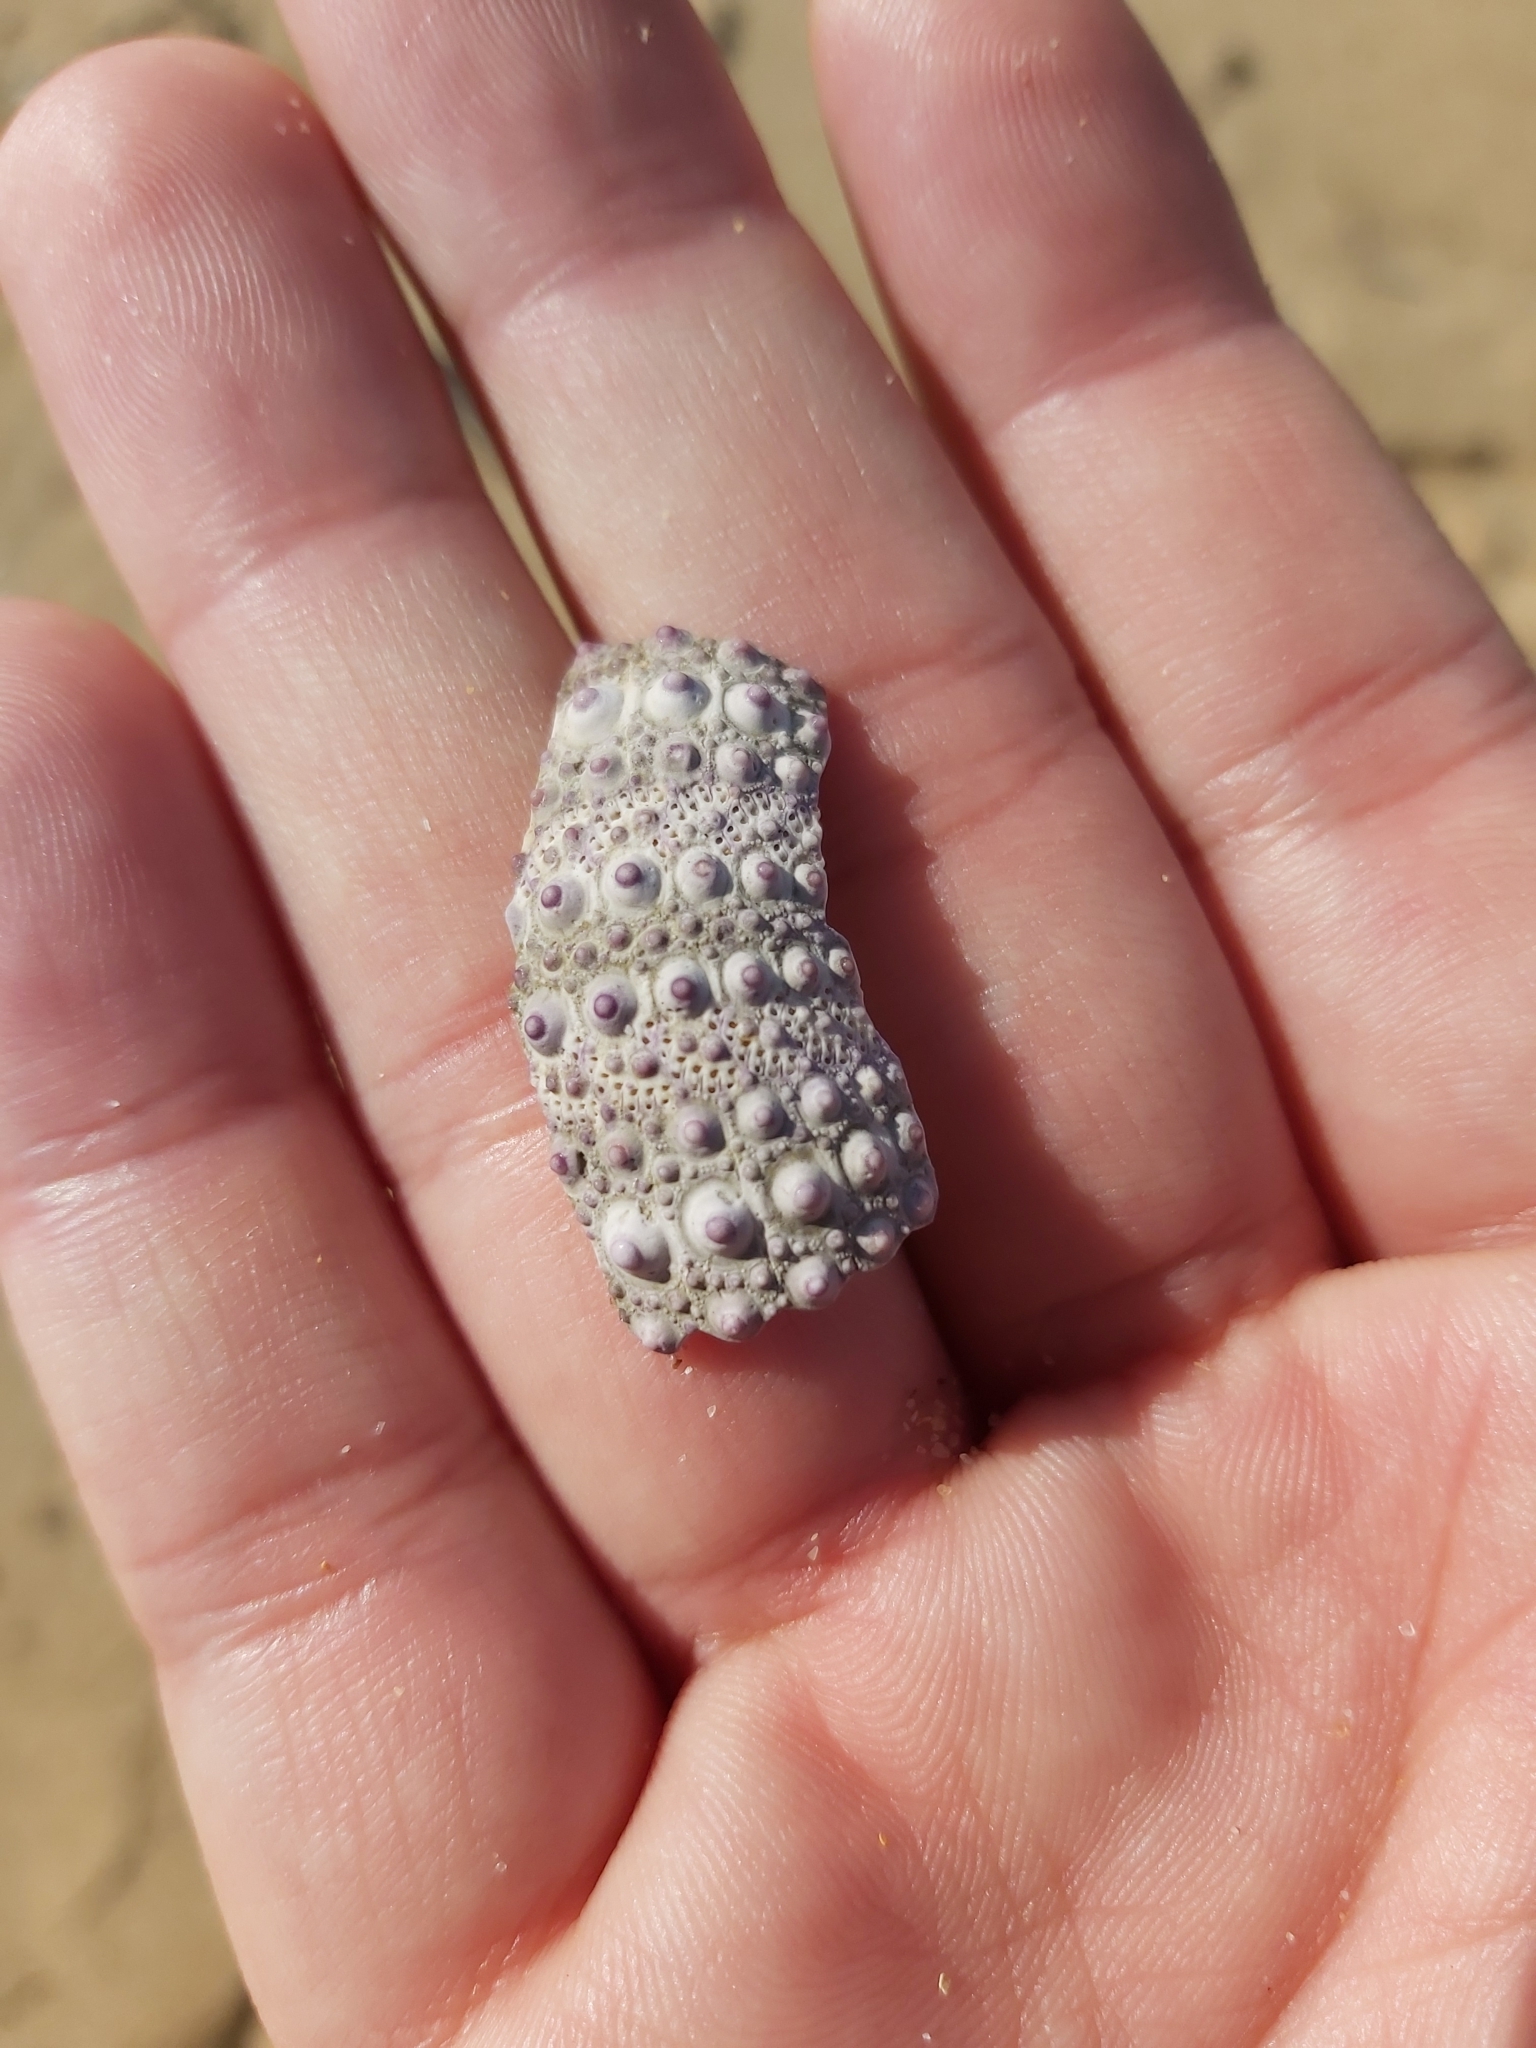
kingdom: Animalia
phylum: Echinodermata
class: Echinoidea
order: Camarodonta
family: Echinometridae
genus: Heliocidaris
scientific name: Heliocidaris erythrogramma
